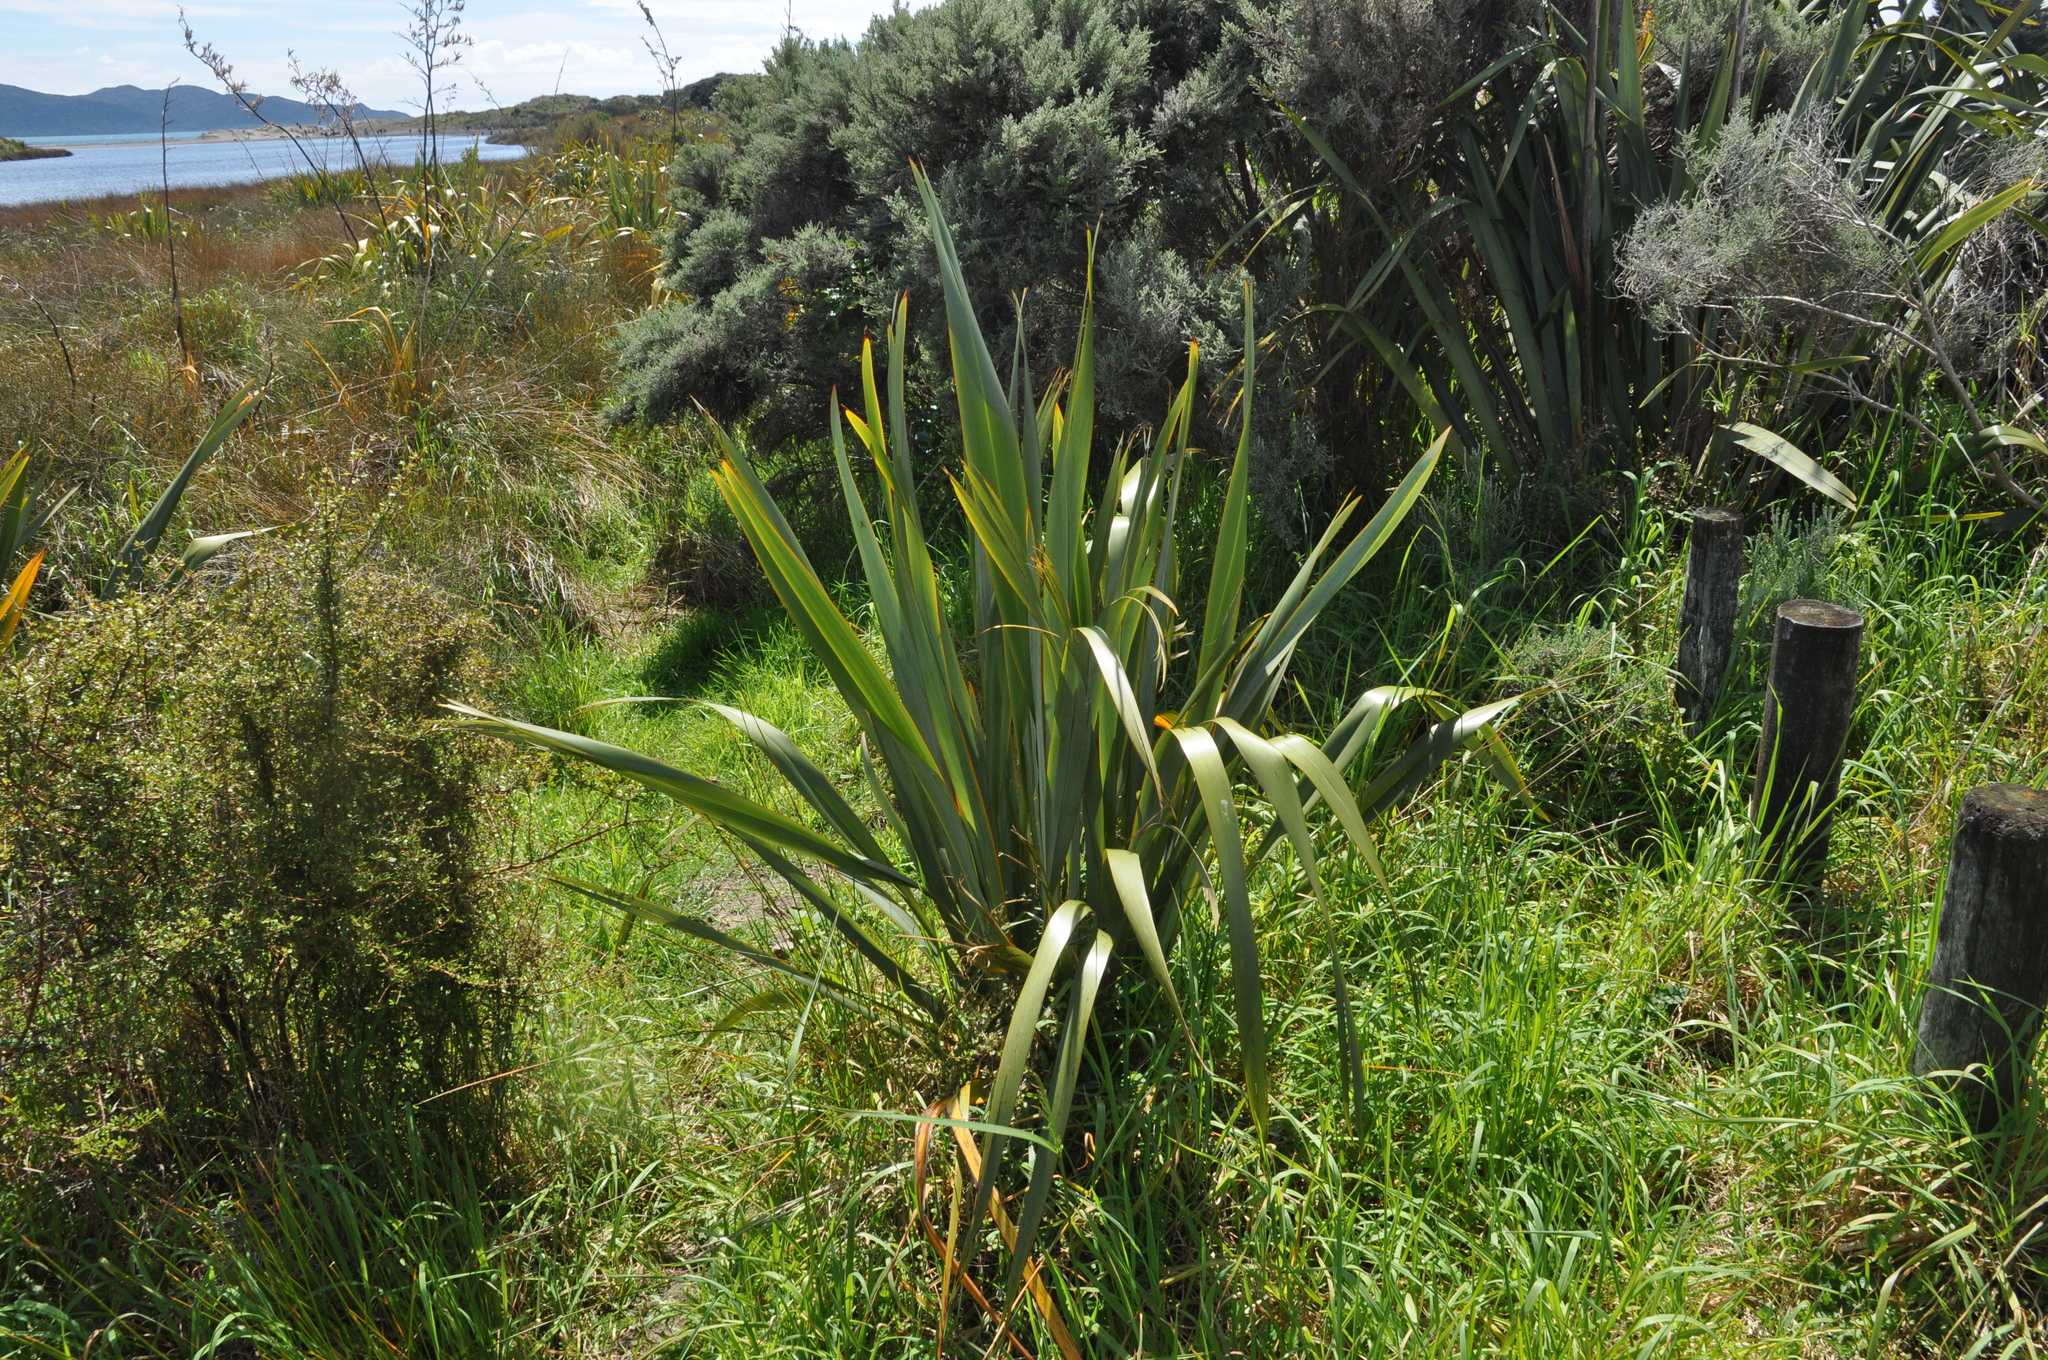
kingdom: Plantae
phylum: Tracheophyta
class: Liliopsida
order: Asparagales
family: Asphodelaceae
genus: Phormium
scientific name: Phormium tenax
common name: New zealand flax
